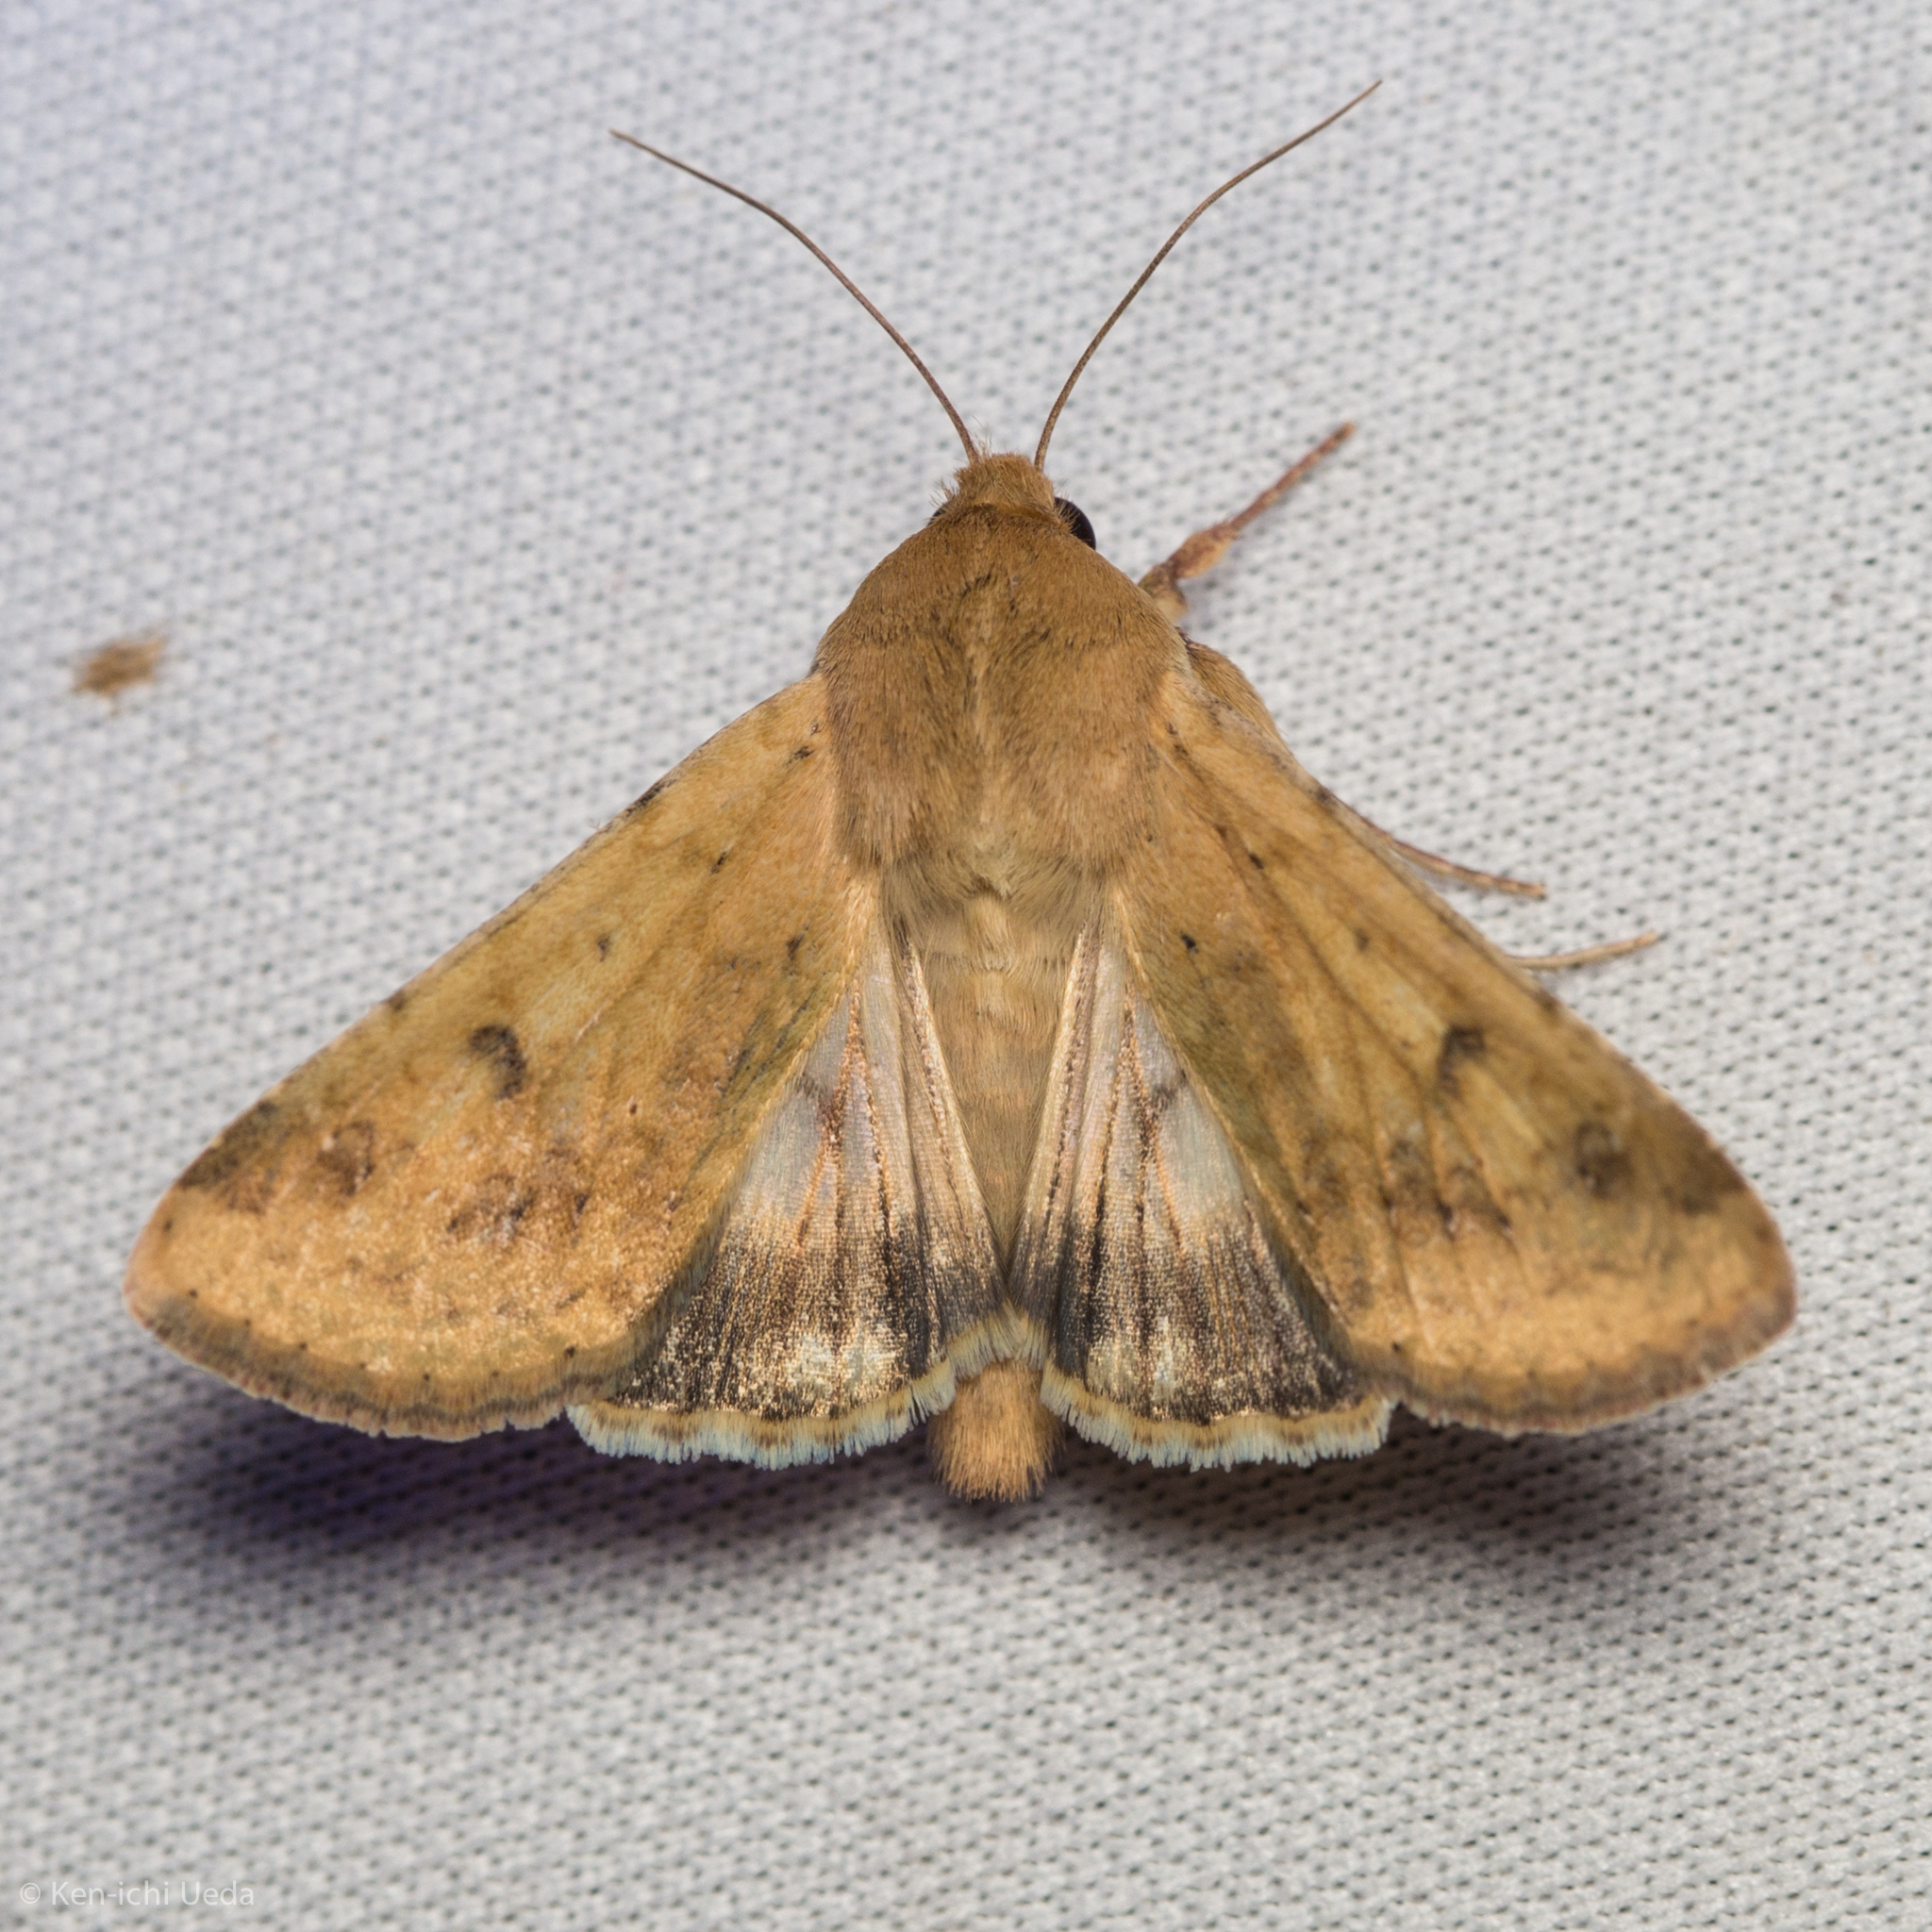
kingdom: Animalia
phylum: Arthropoda
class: Insecta
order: Lepidoptera
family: Noctuidae
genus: Helicoverpa
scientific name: Helicoverpa zea
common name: Bollworm
